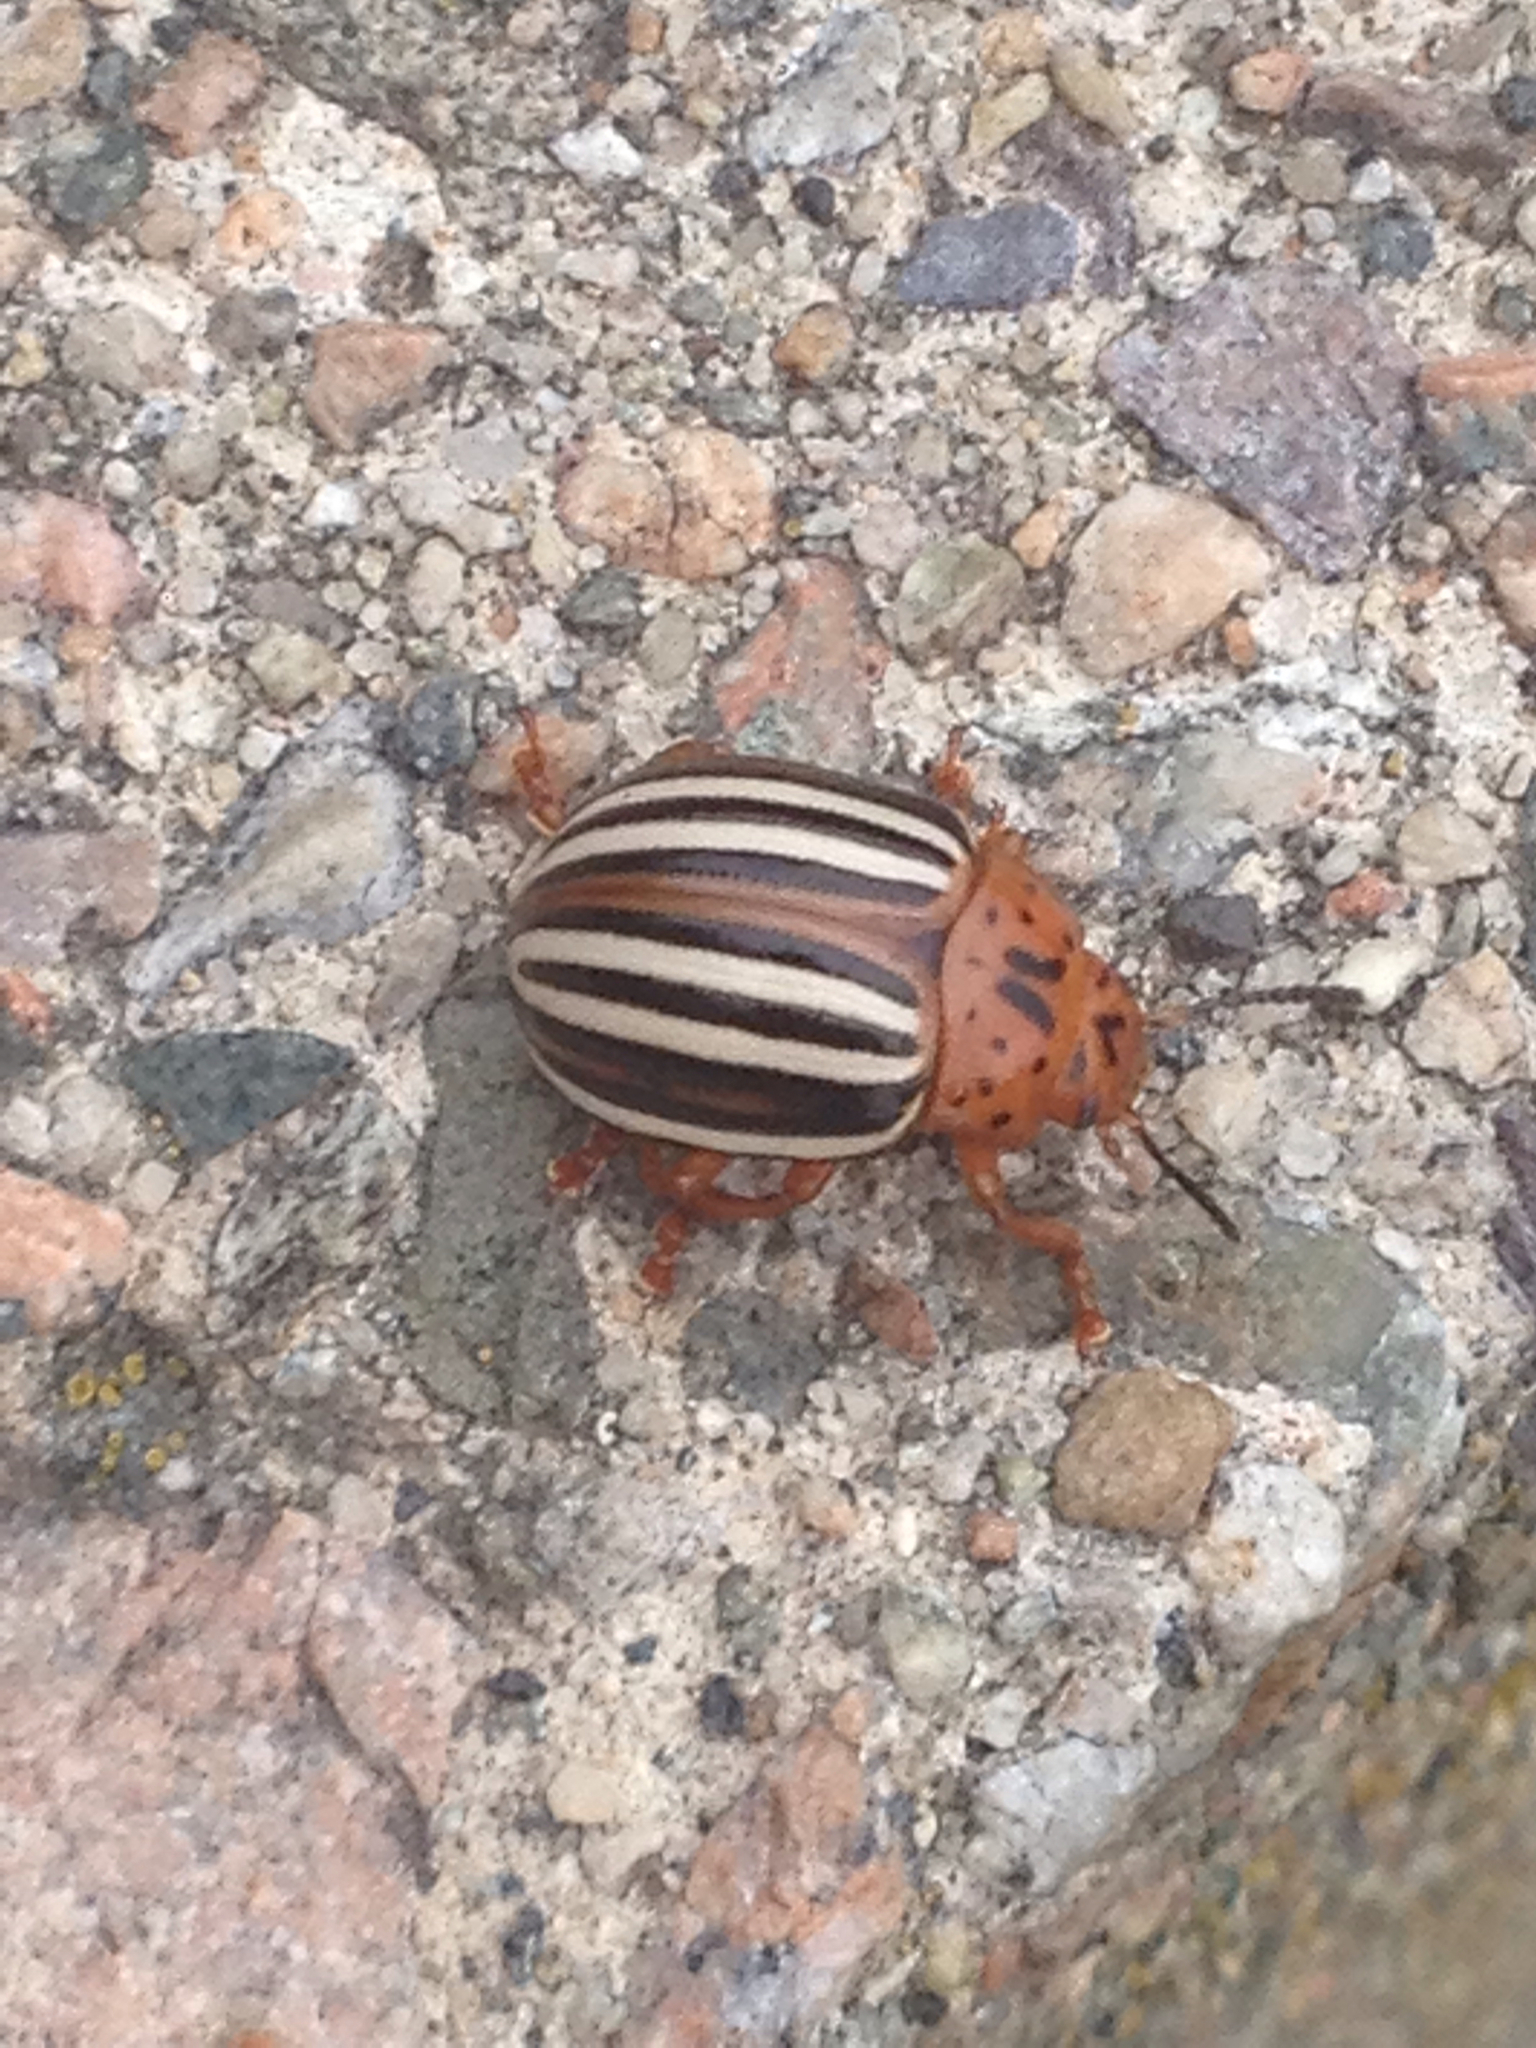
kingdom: Animalia
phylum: Arthropoda
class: Insecta
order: Coleoptera
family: Chrysomelidae
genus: Leptinotarsa
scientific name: Leptinotarsa juncta
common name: False potato beetle
